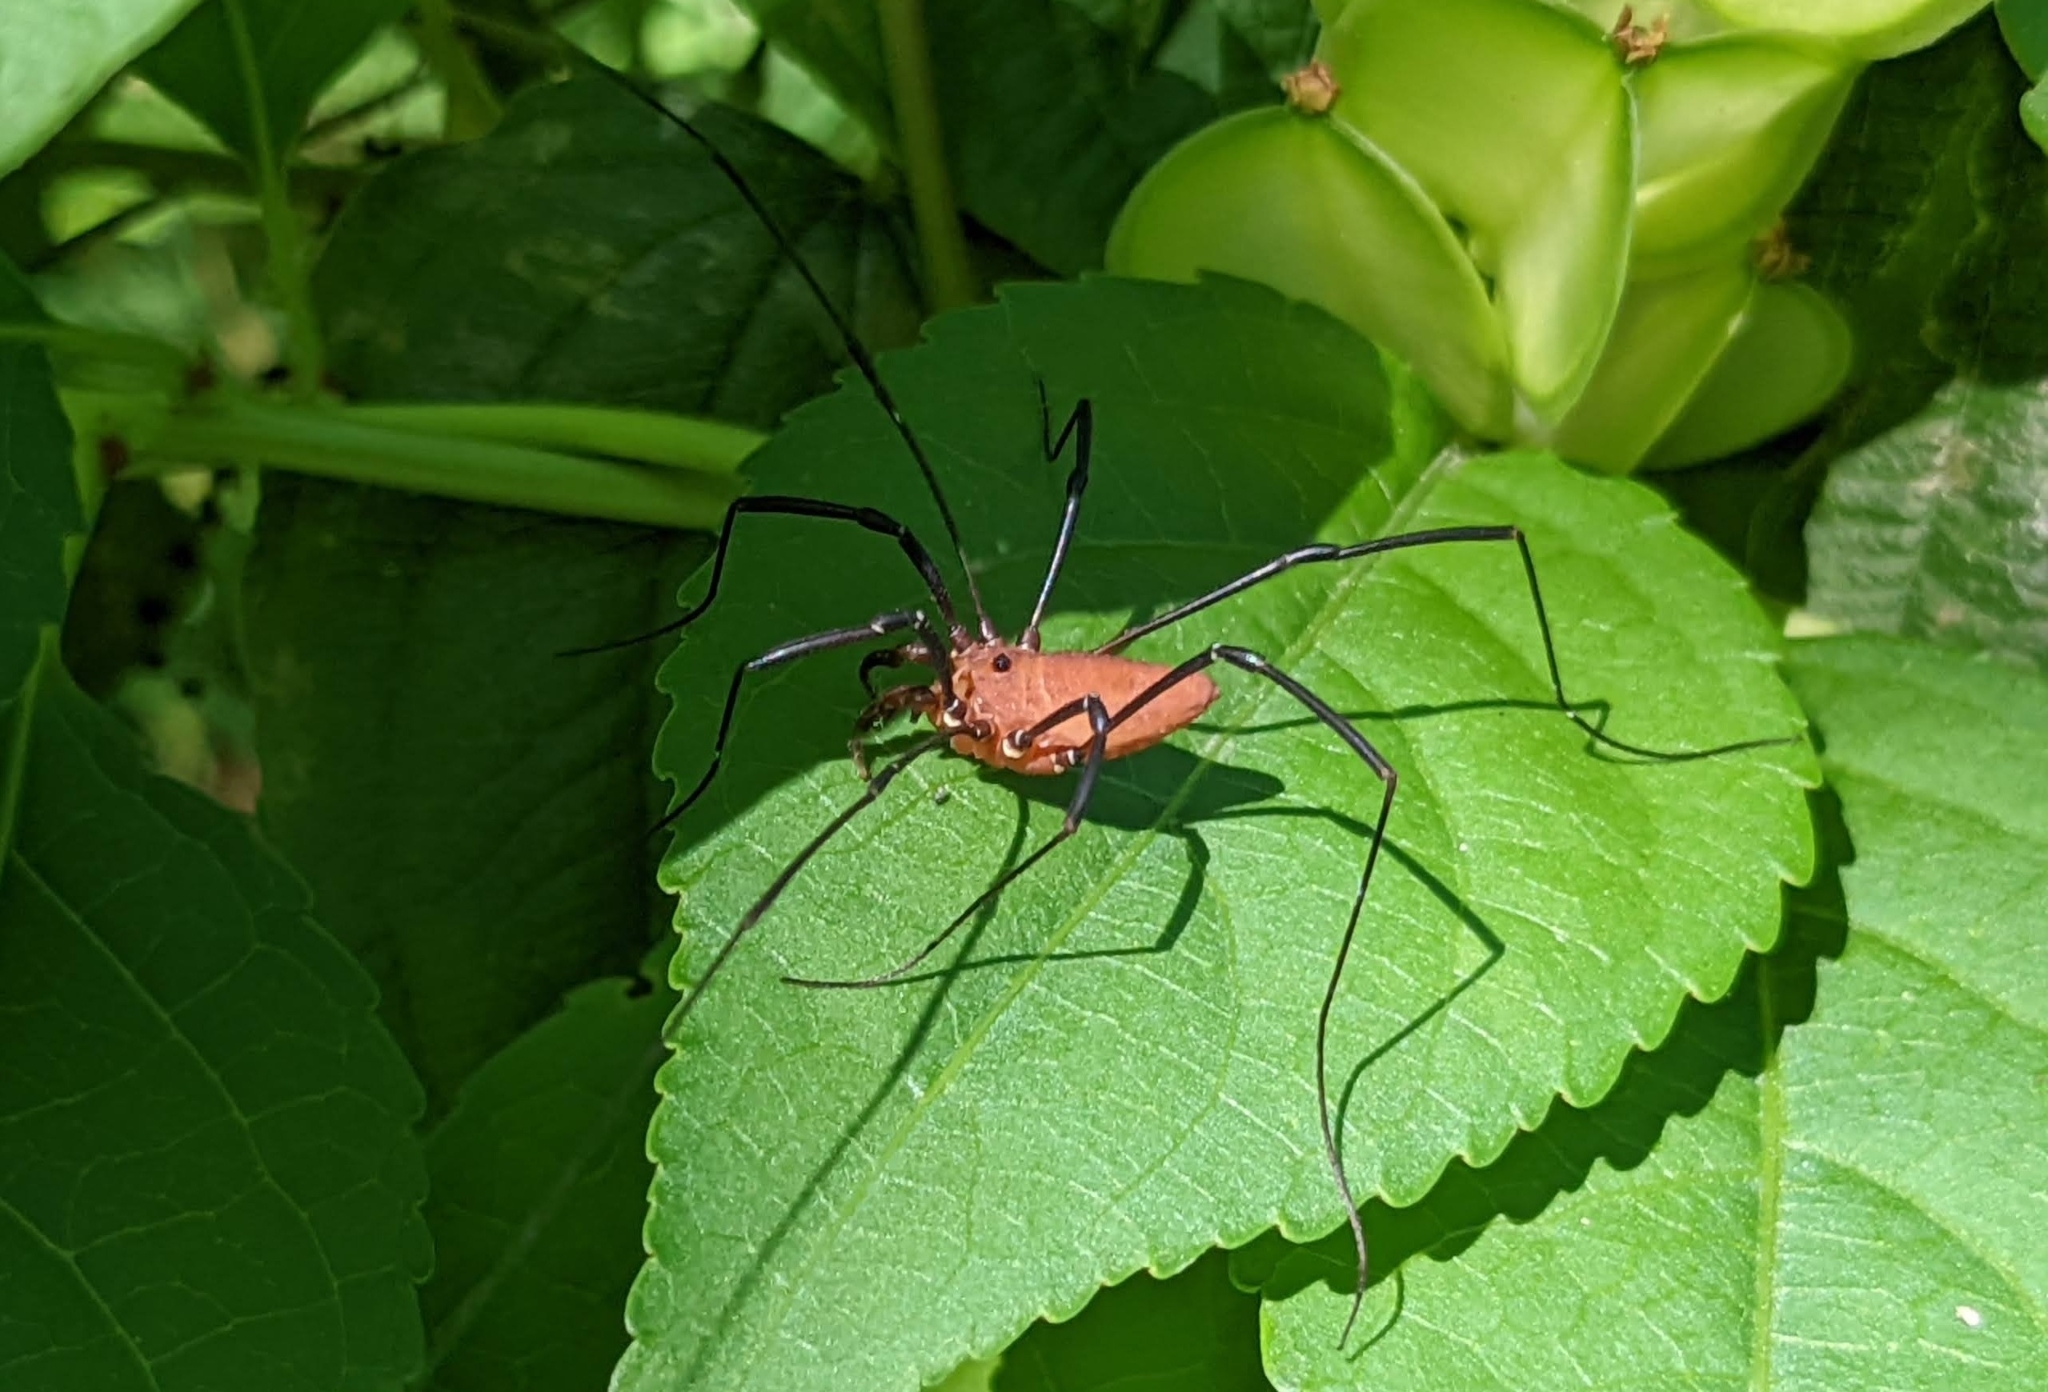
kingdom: Animalia
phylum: Arthropoda
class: Arachnida
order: Opiliones
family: Sclerosomatidae
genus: Leiobunum
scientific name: Leiobunum calcar
